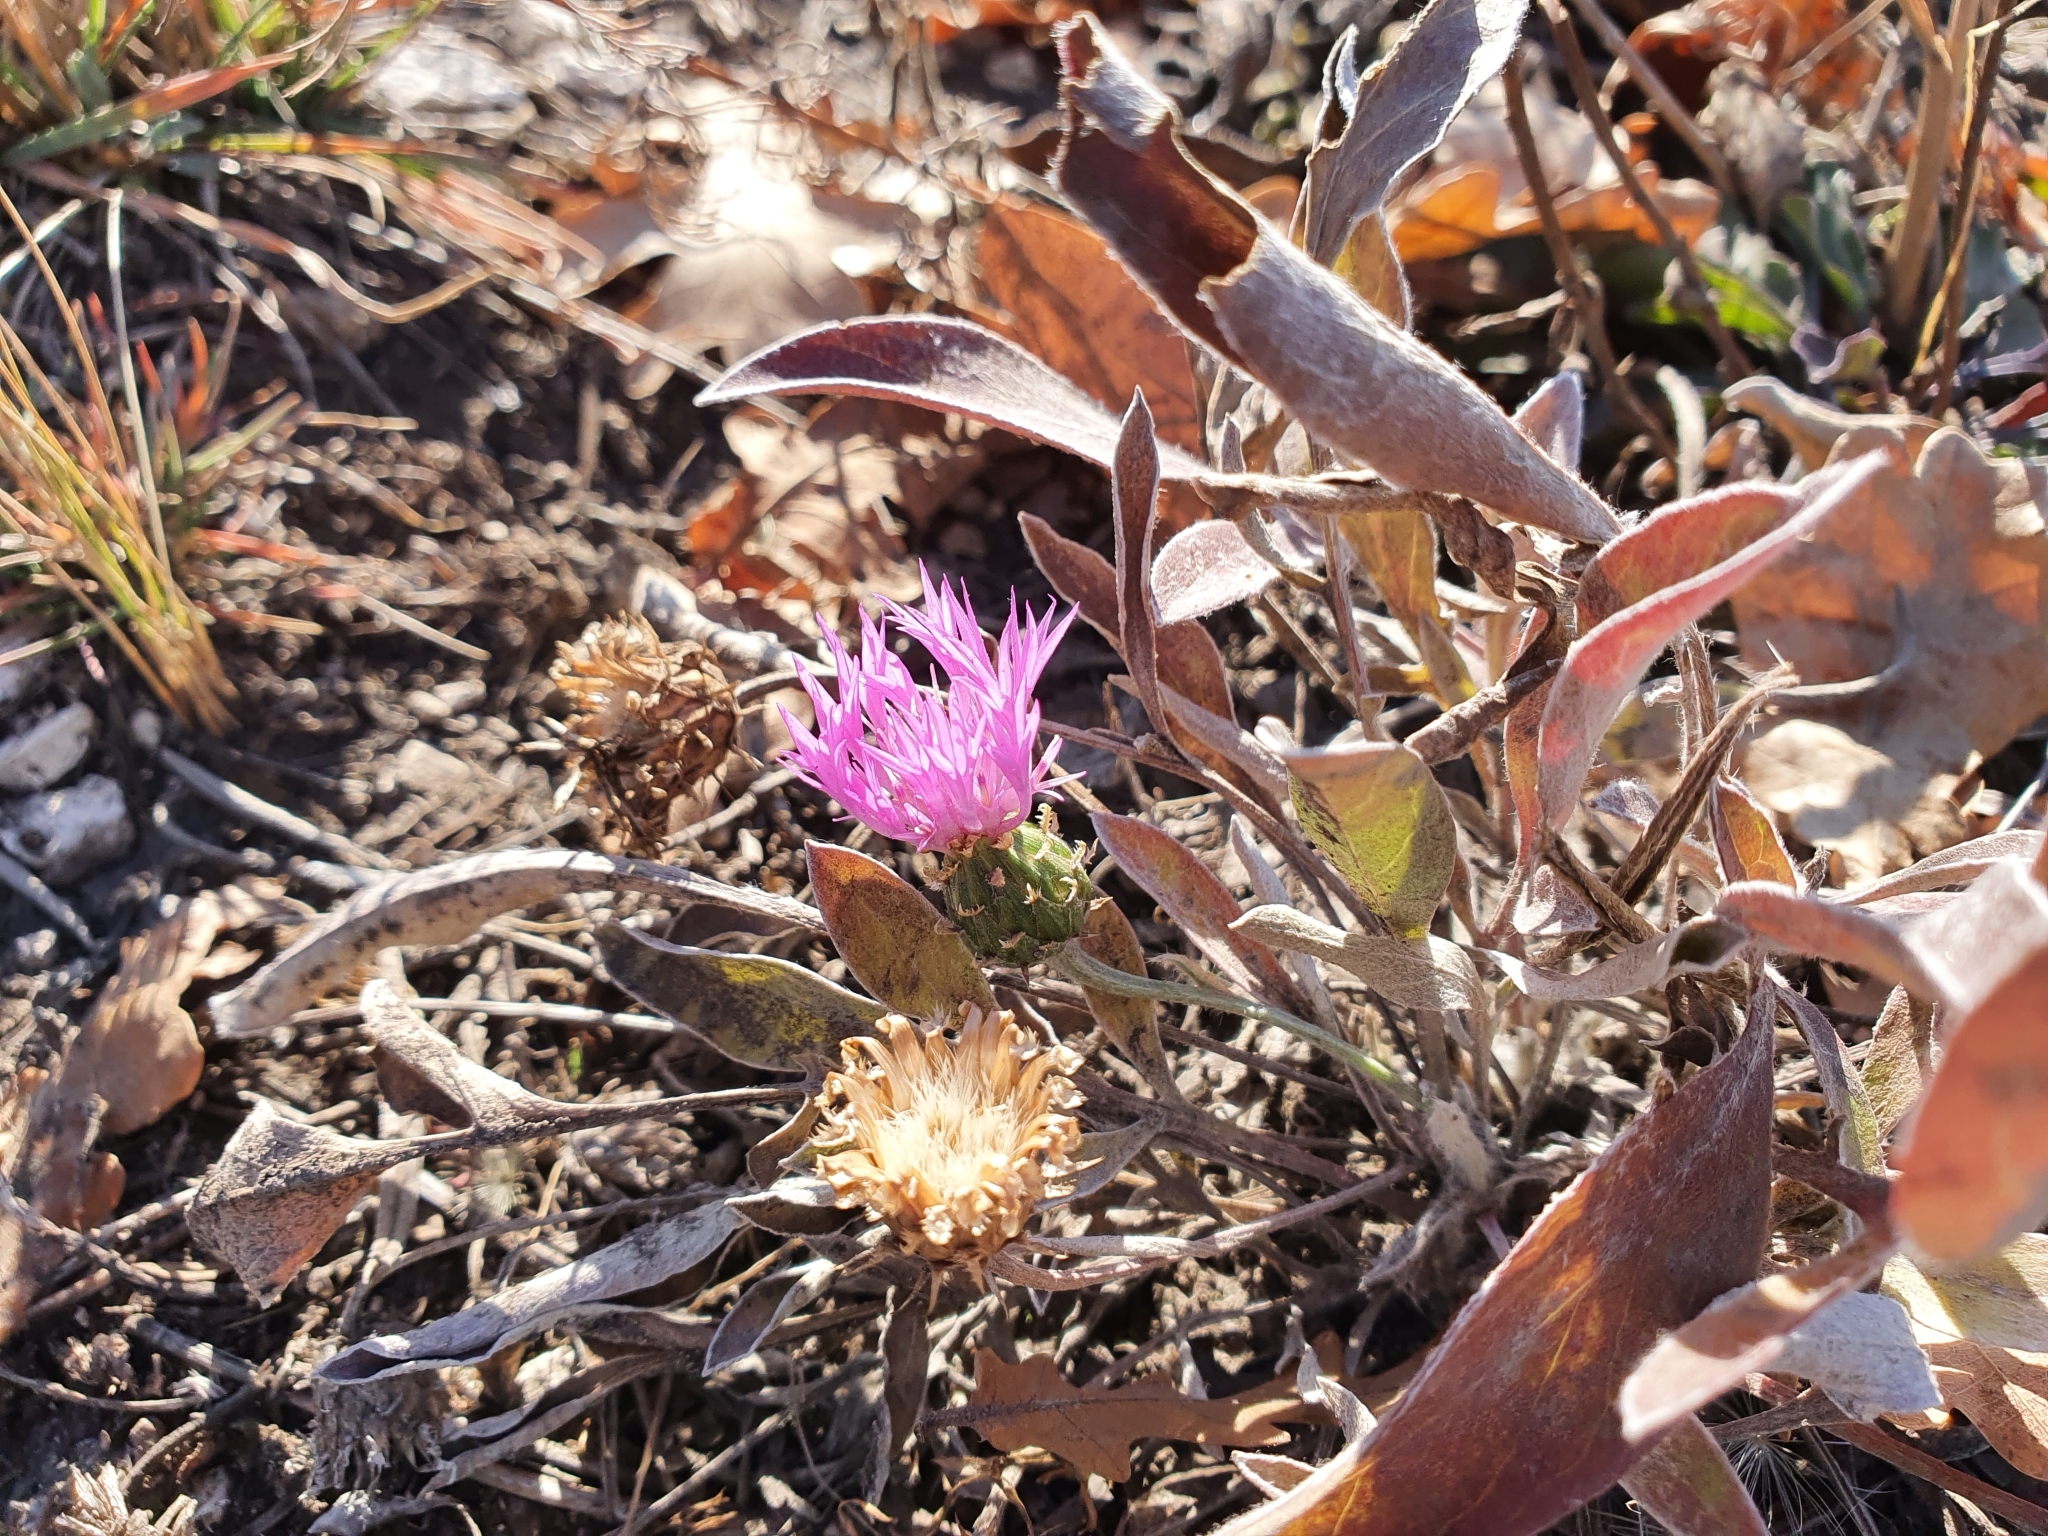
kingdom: Plantae
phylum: Tracheophyta
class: Magnoliopsida
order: Asterales
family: Asteraceae
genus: Psephellus
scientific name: Psephellus sumensis
